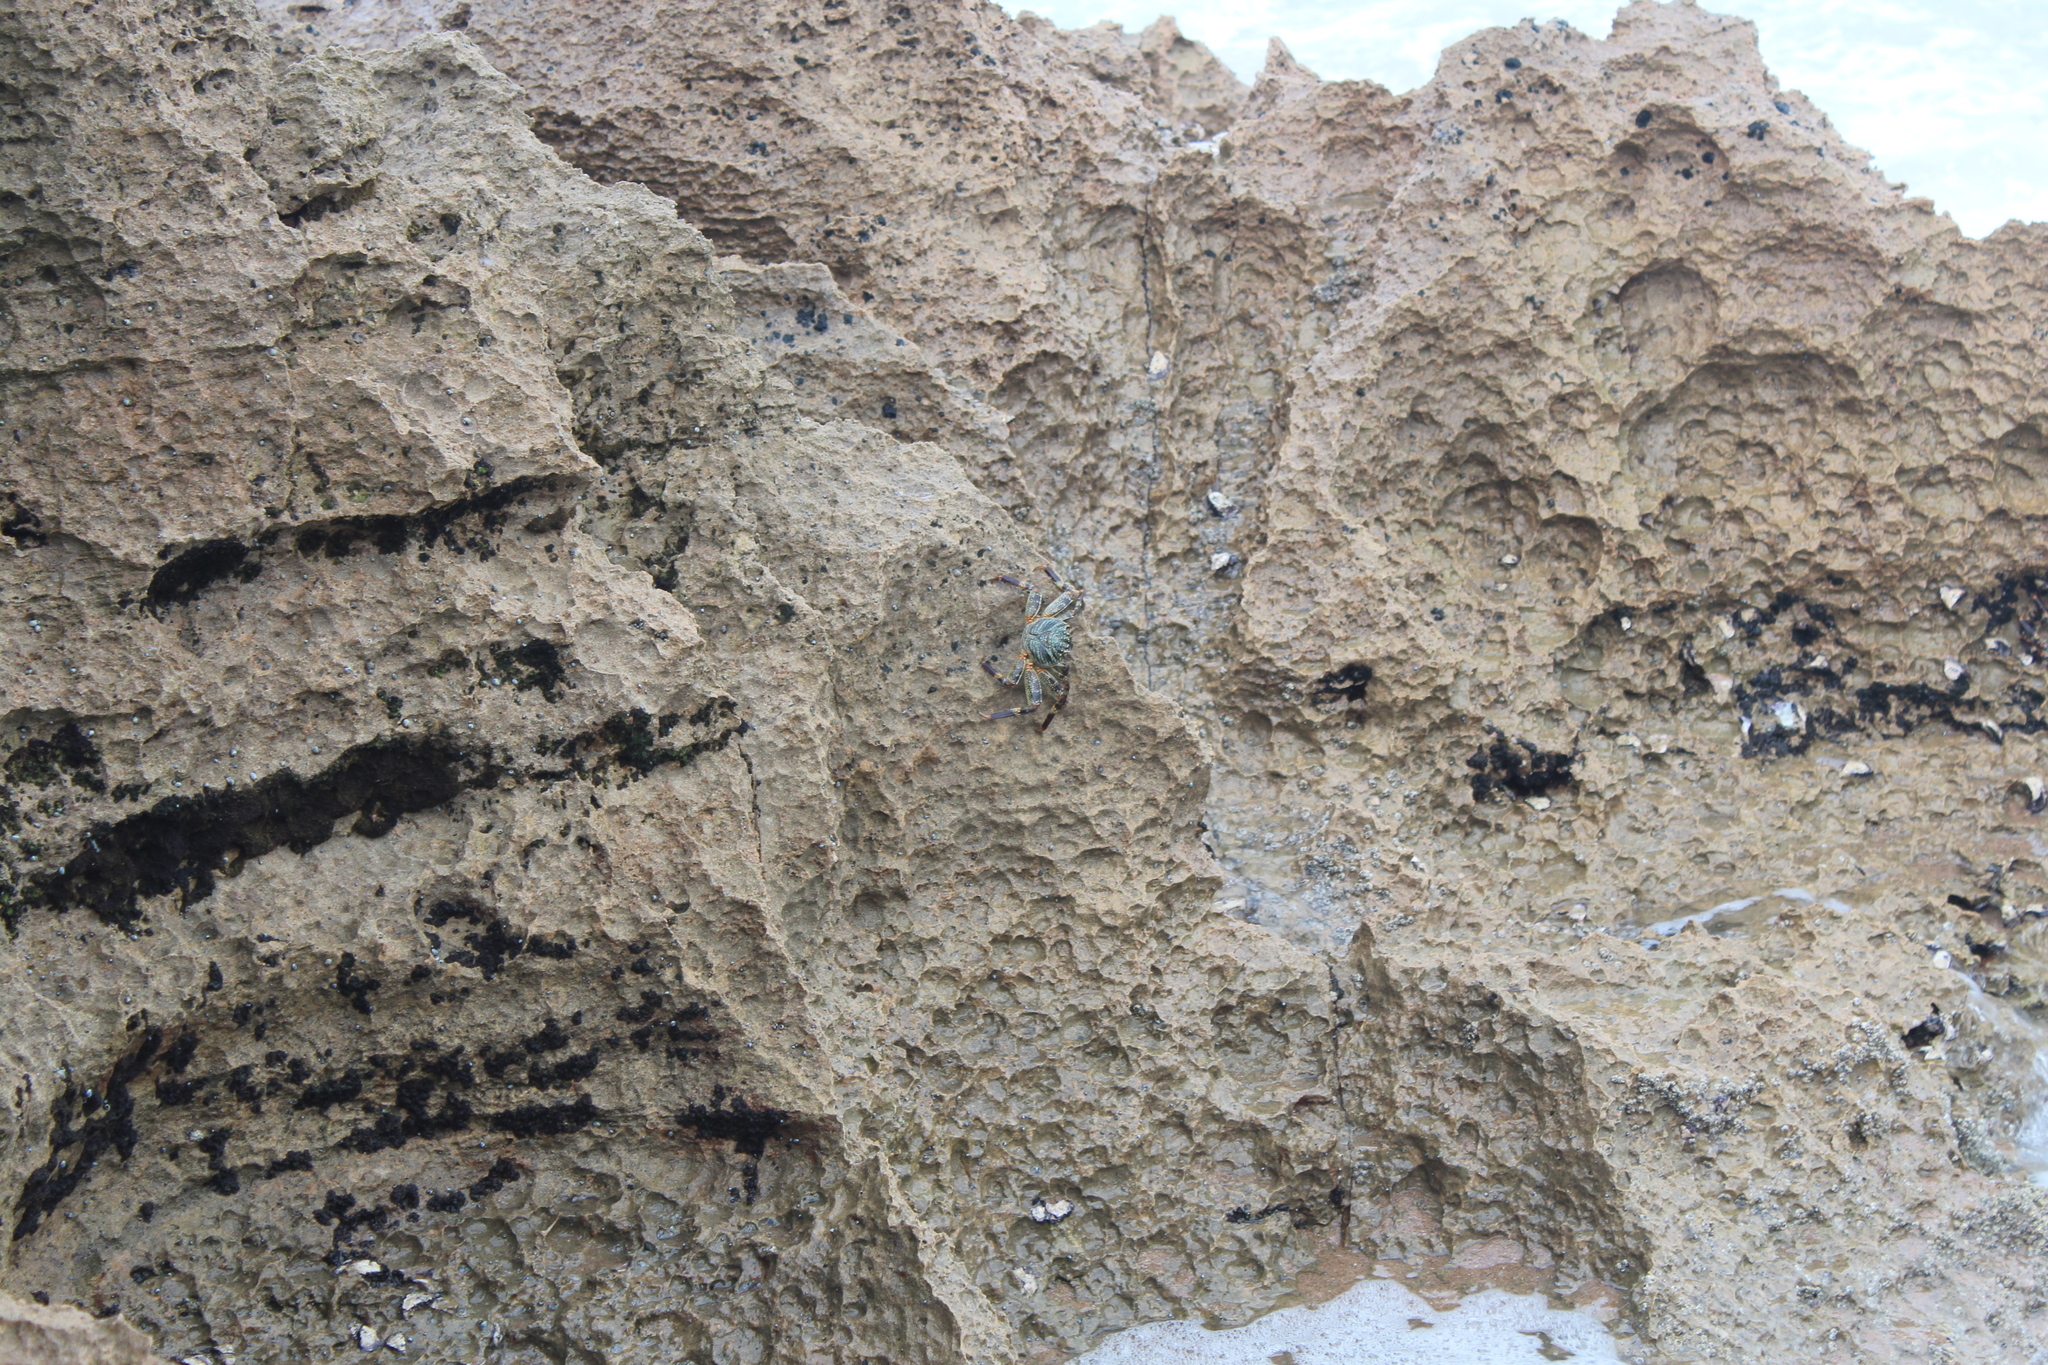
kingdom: Animalia
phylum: Arthropoda
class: Malacostraca
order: Decapoda
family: Grapsidae
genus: Grapsus
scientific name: Grapsus tenuicrustatus
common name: Natal lightfoot crab
